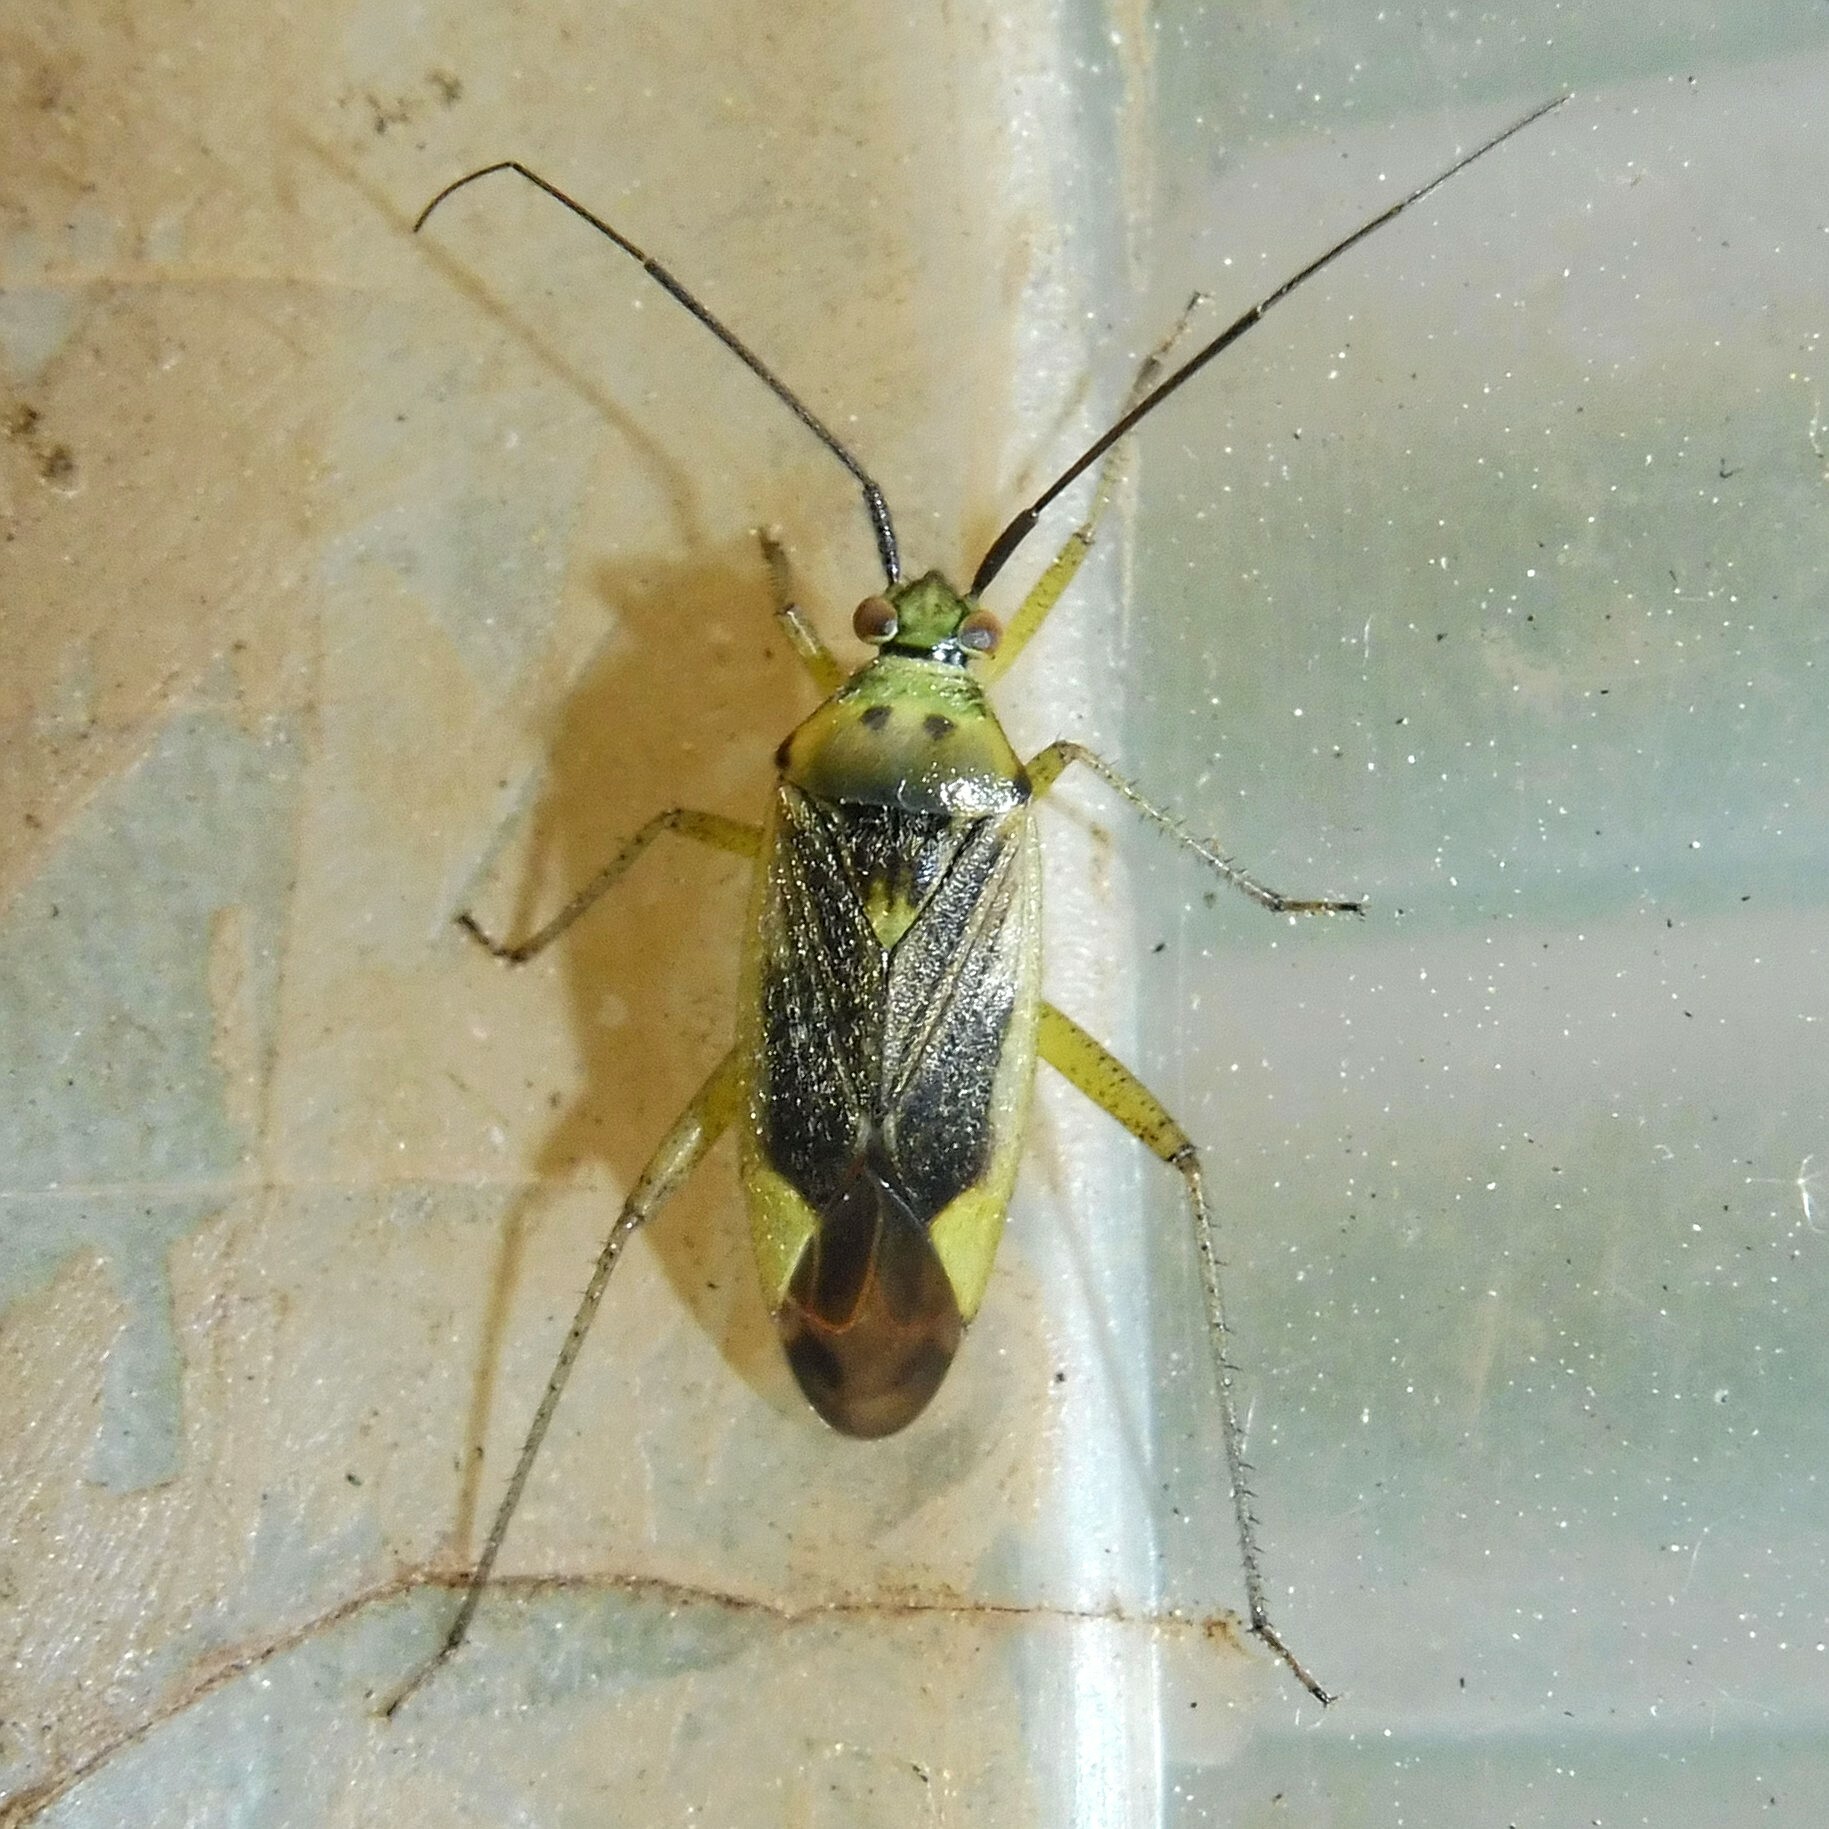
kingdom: Animalia
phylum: Arthropoda
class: Insecta
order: Hemiptera
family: Miridae
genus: Closterotomus
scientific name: Closterotomus trivialis
